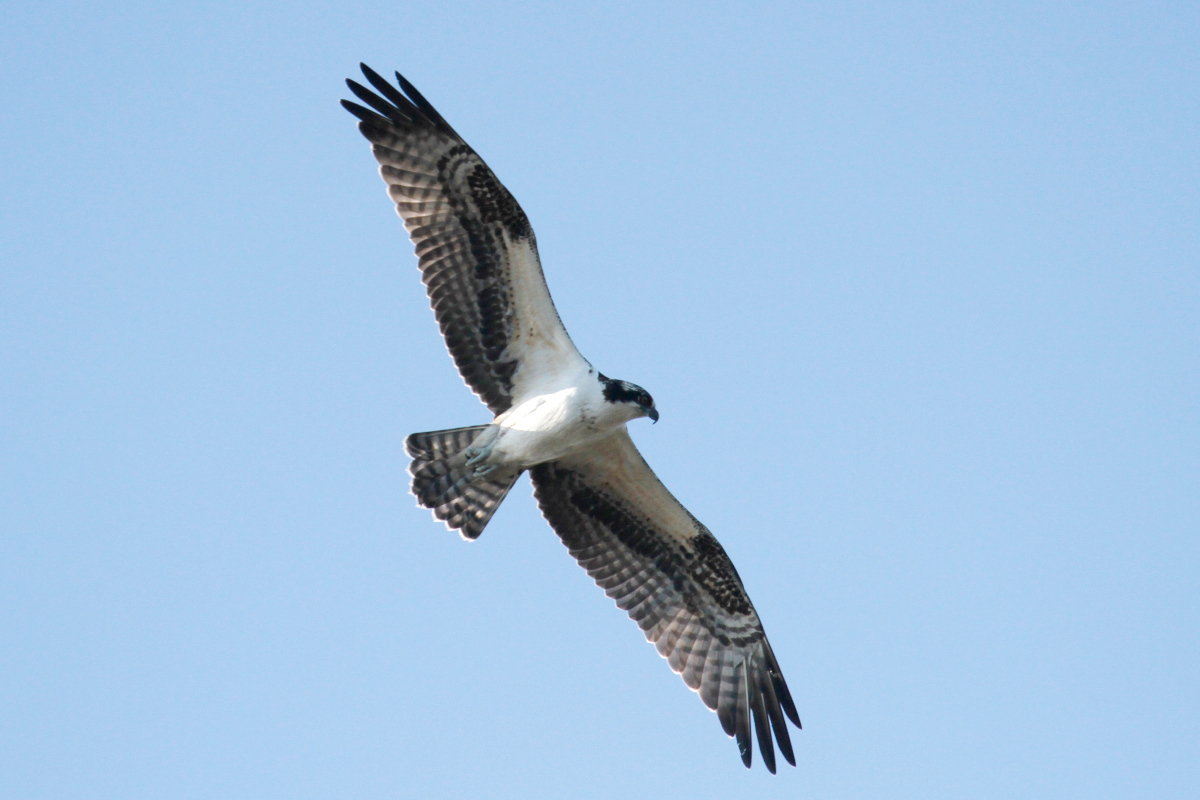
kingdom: Animalia
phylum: Chordata
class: Aves
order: Accipitriformes
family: Pandionidae
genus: Pandion
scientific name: Pandion haliaetus
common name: Osprey
